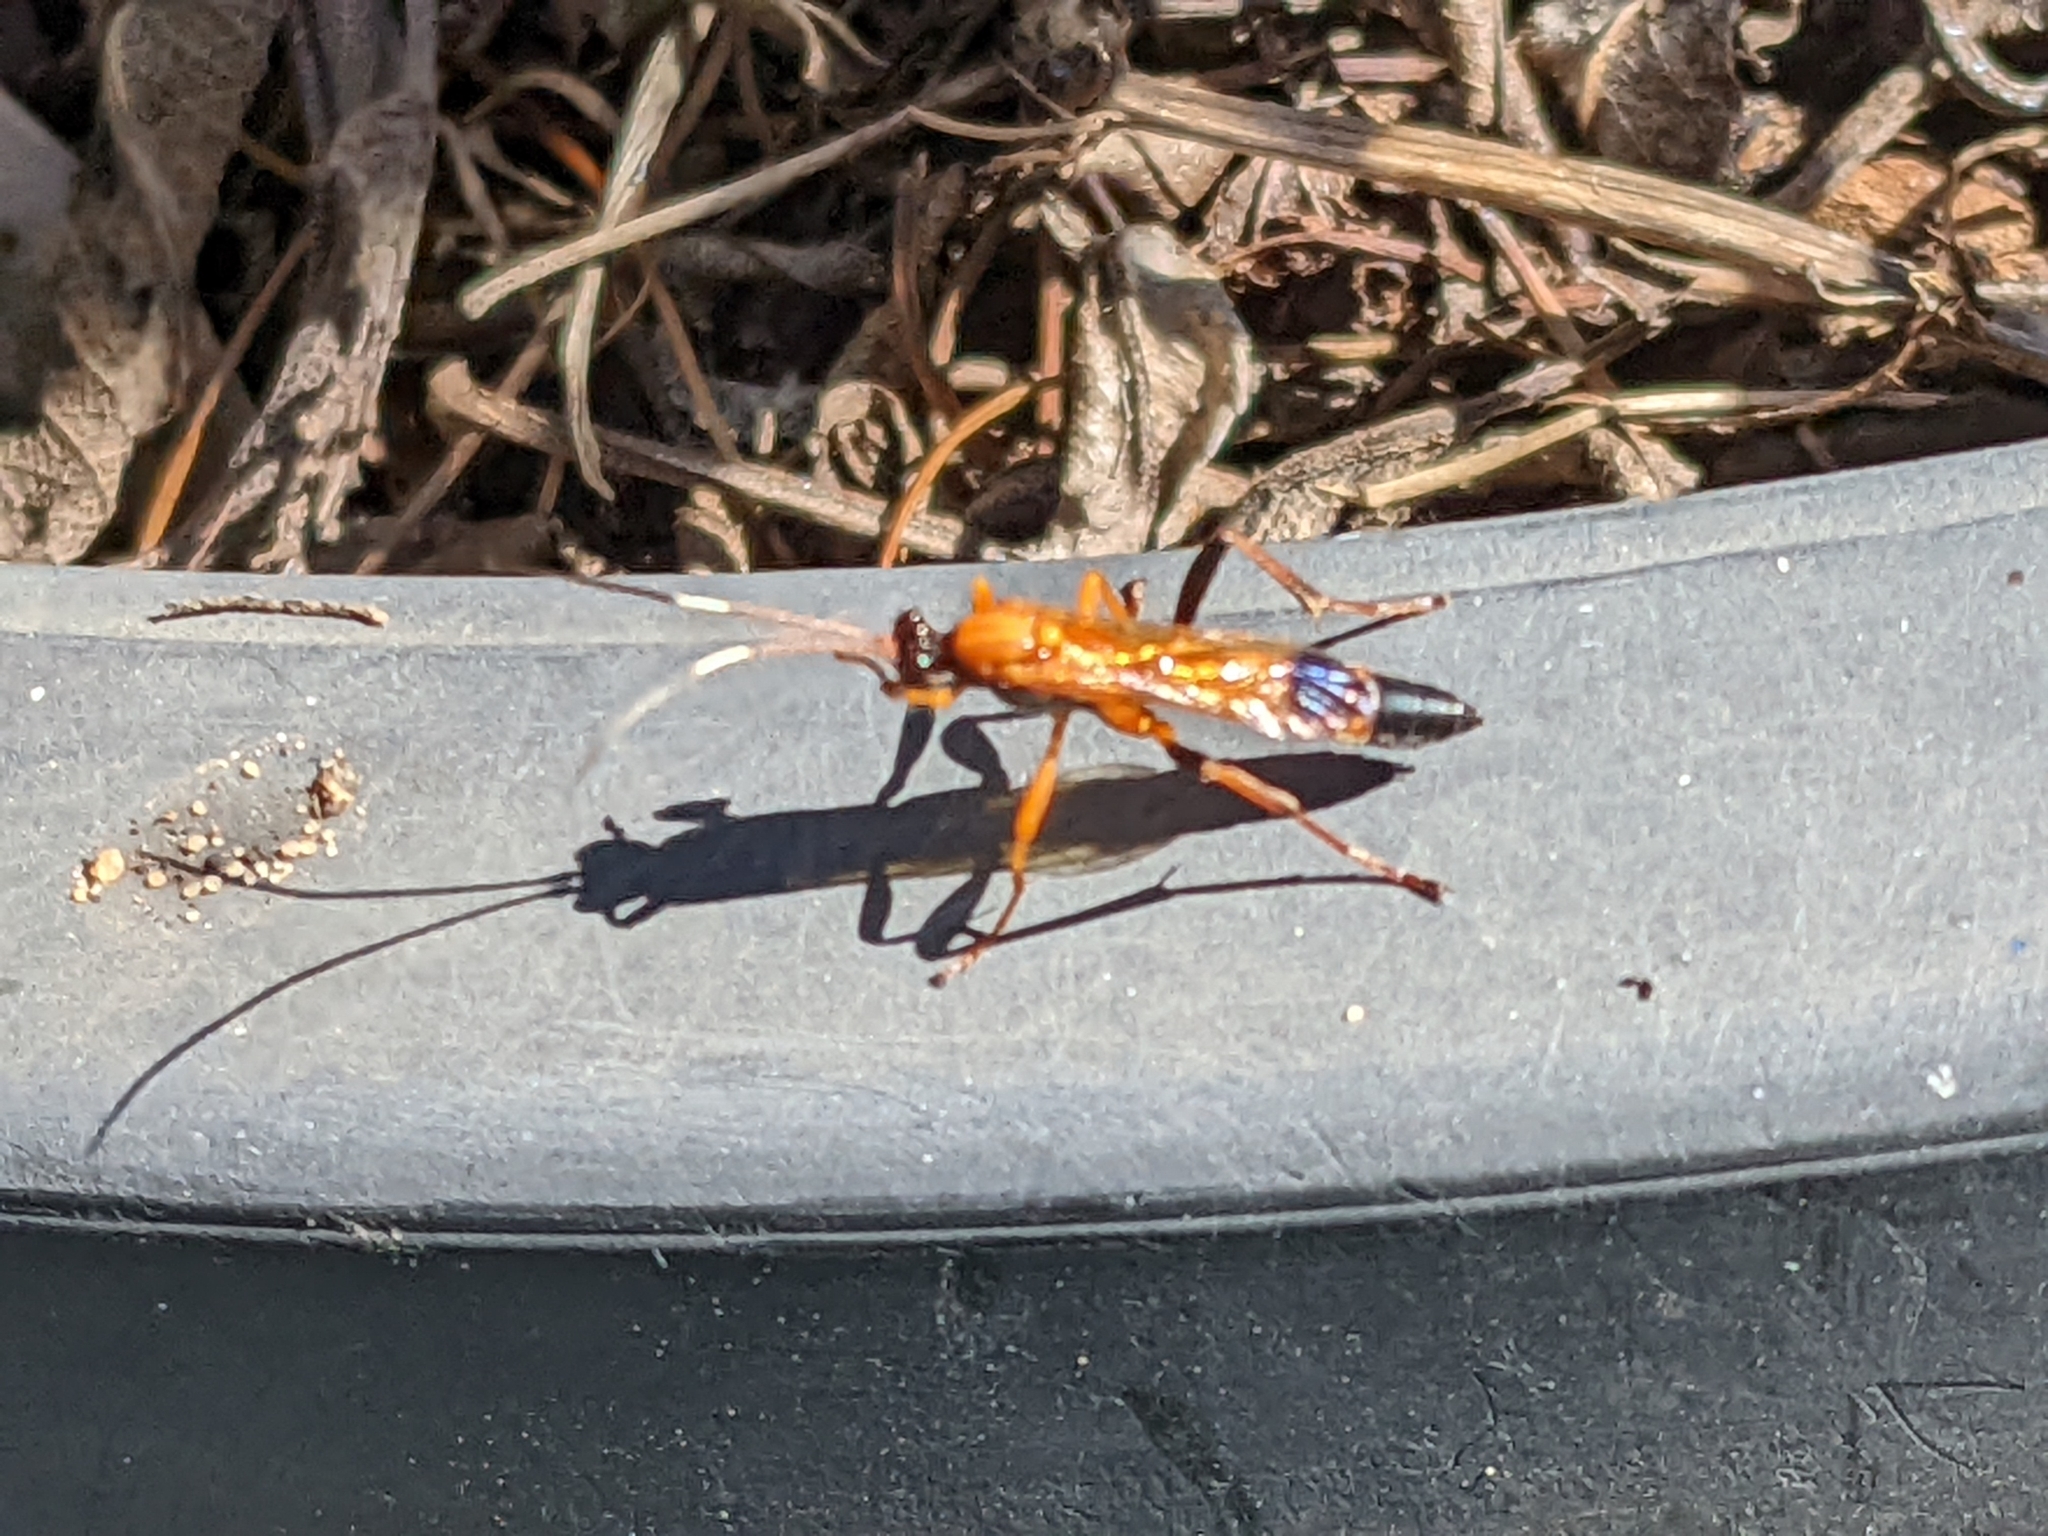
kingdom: Animalia
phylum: Arthropoda
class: Insecta
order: Hymenoptera
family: Ichneumonidae
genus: Ctenochares
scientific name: Ctenochares bicolorus
